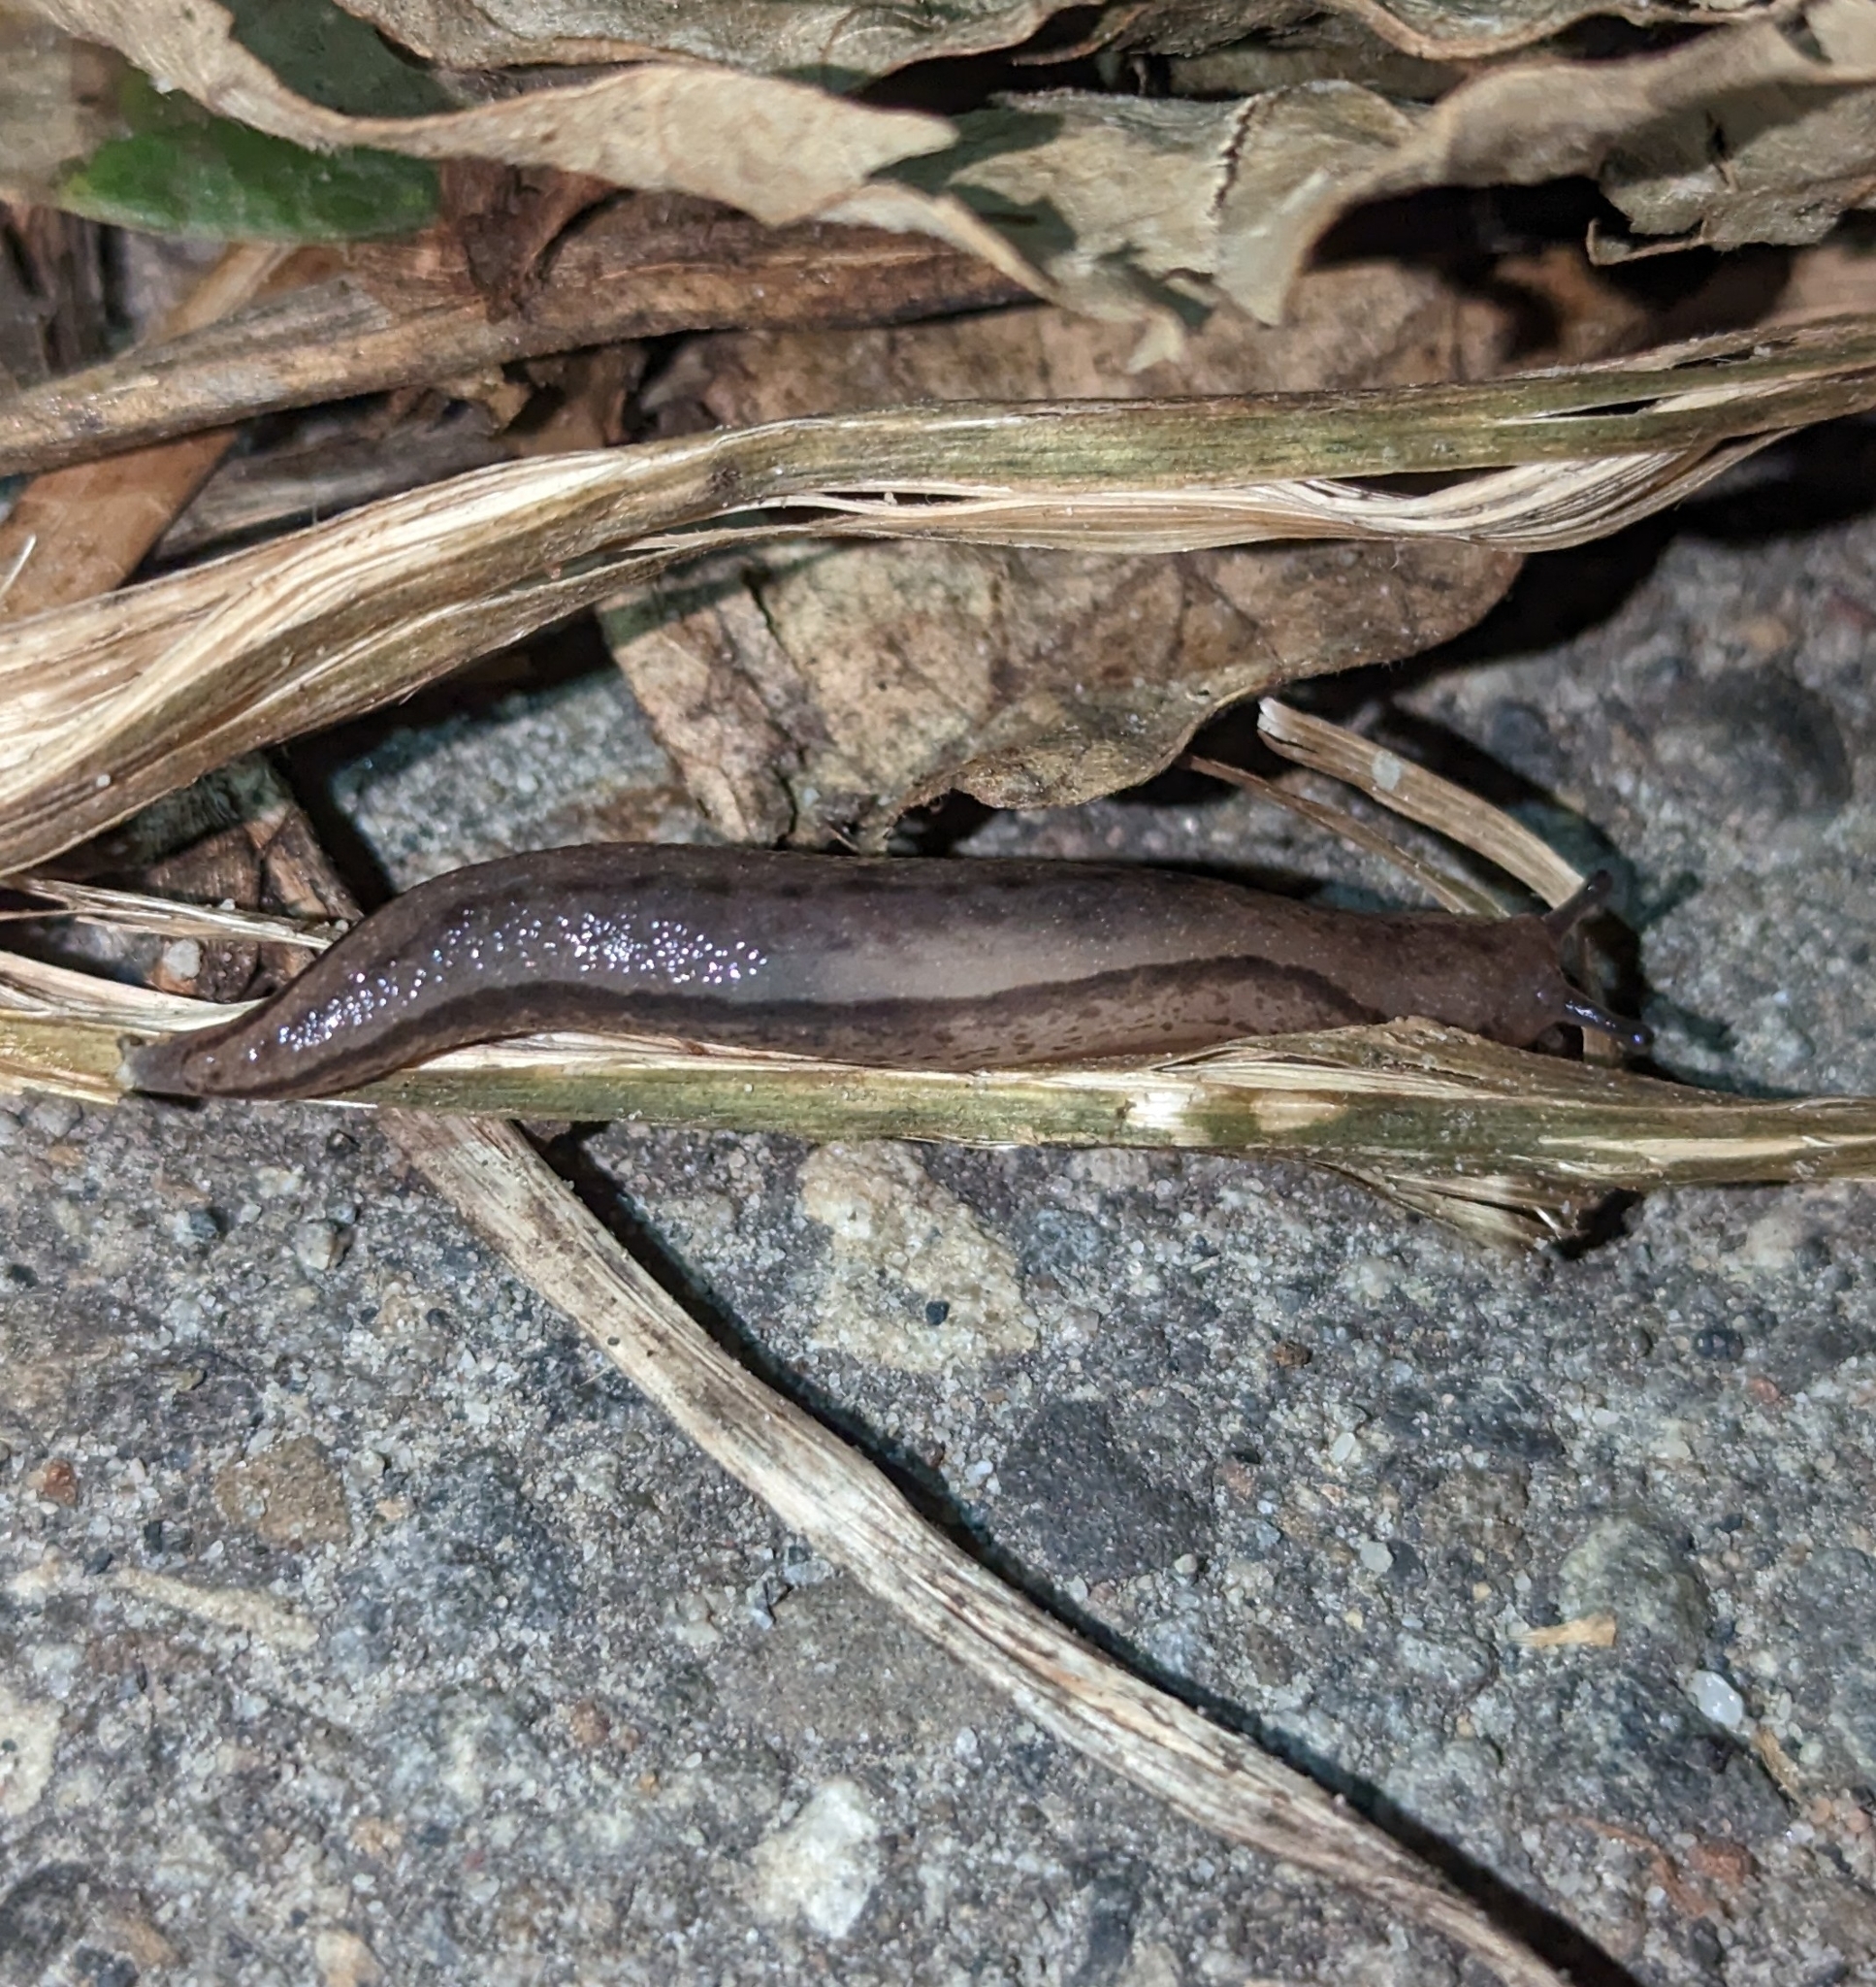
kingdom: Animalia
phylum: Mollusca
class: Gastropoda
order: Stylommatophora
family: Philomycidae
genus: Meghimatium
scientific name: Meghimatium bilineatum
